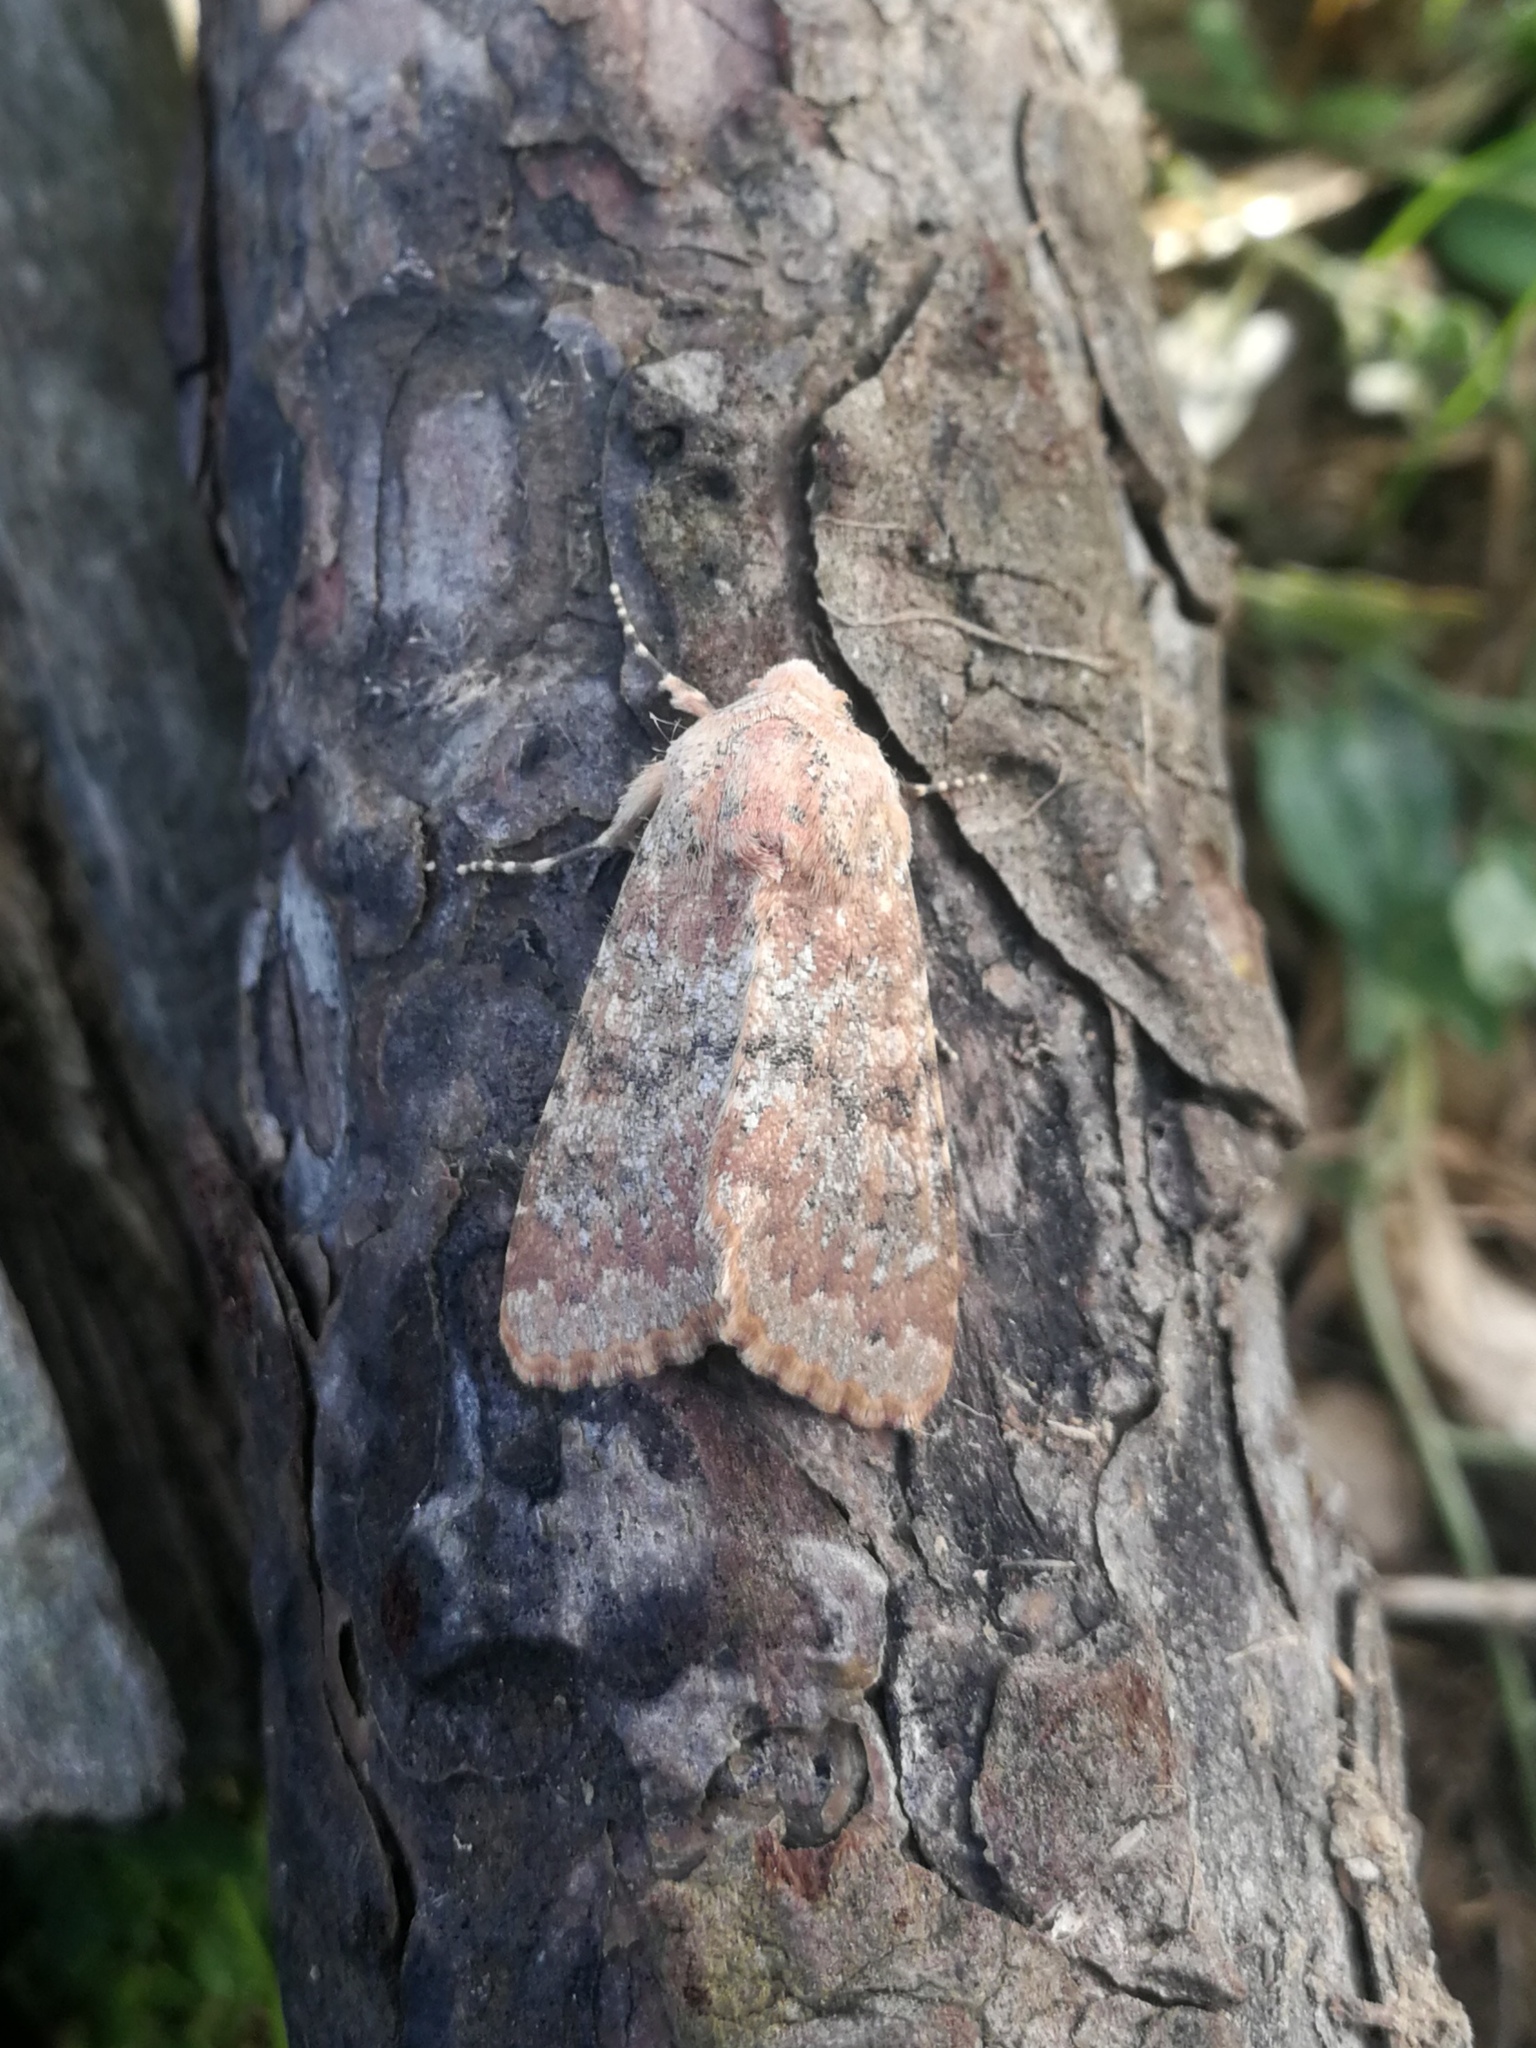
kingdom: Animalia
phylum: Arthropoda
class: Insecta
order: Lepidoptera
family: Noctuidae
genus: Polymixis
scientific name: Polymixis argillaceago
